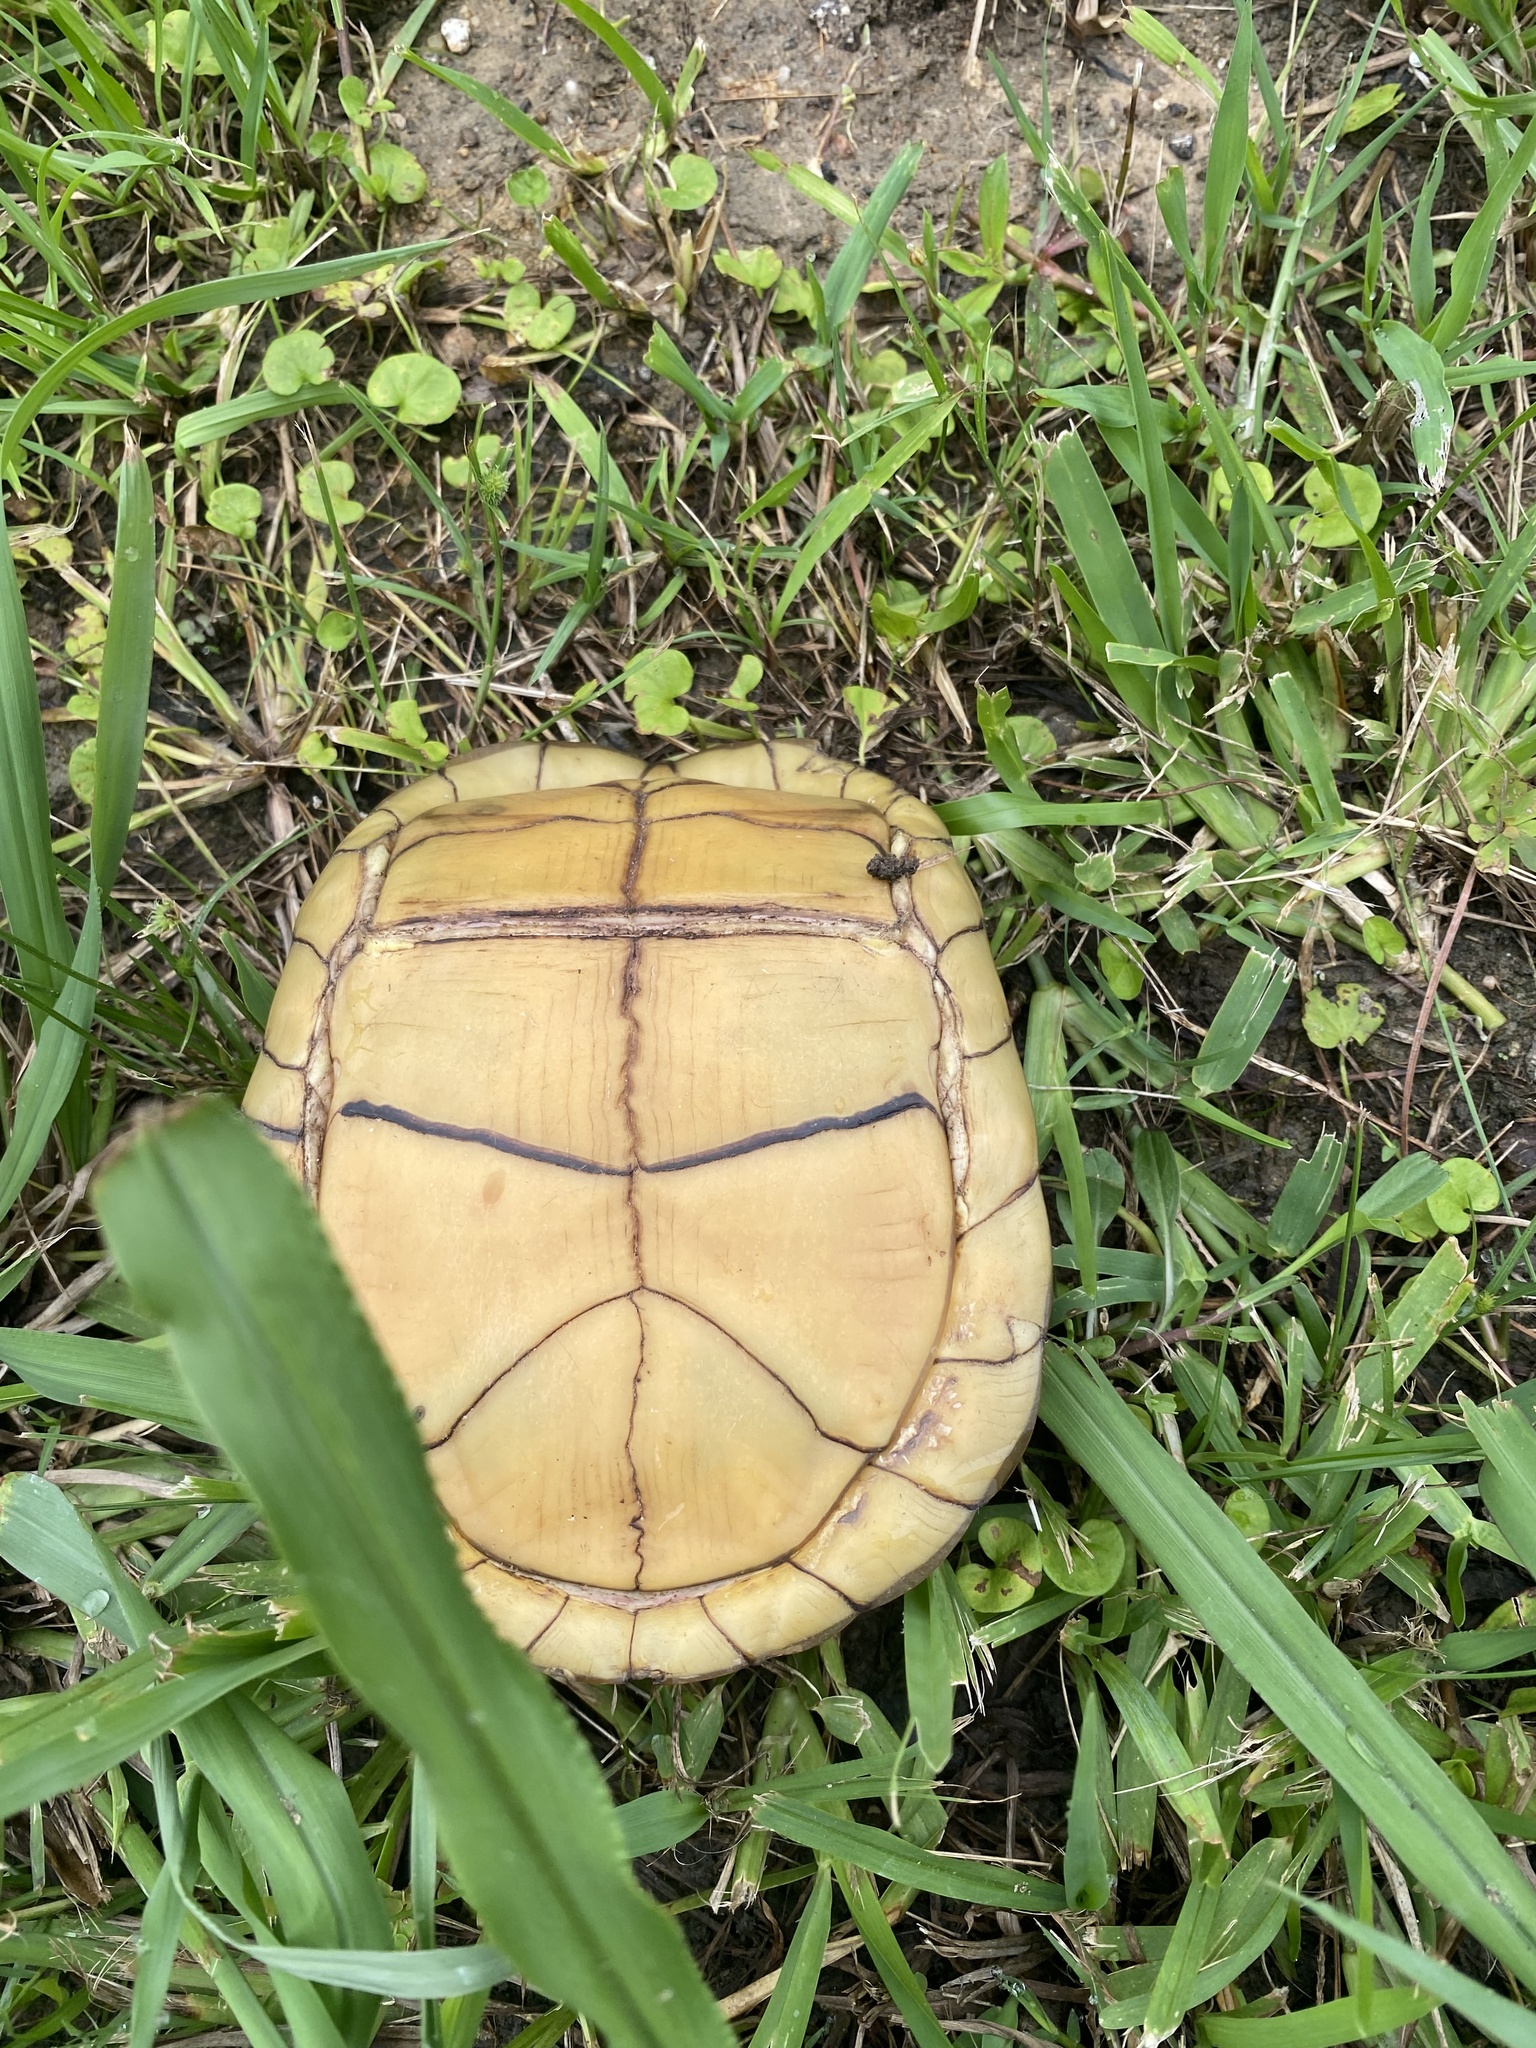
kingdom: Animalia
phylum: Chordata
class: Testudines
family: Emydidae
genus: Terrapene
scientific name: Terrapene carolina
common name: Common box turtle
